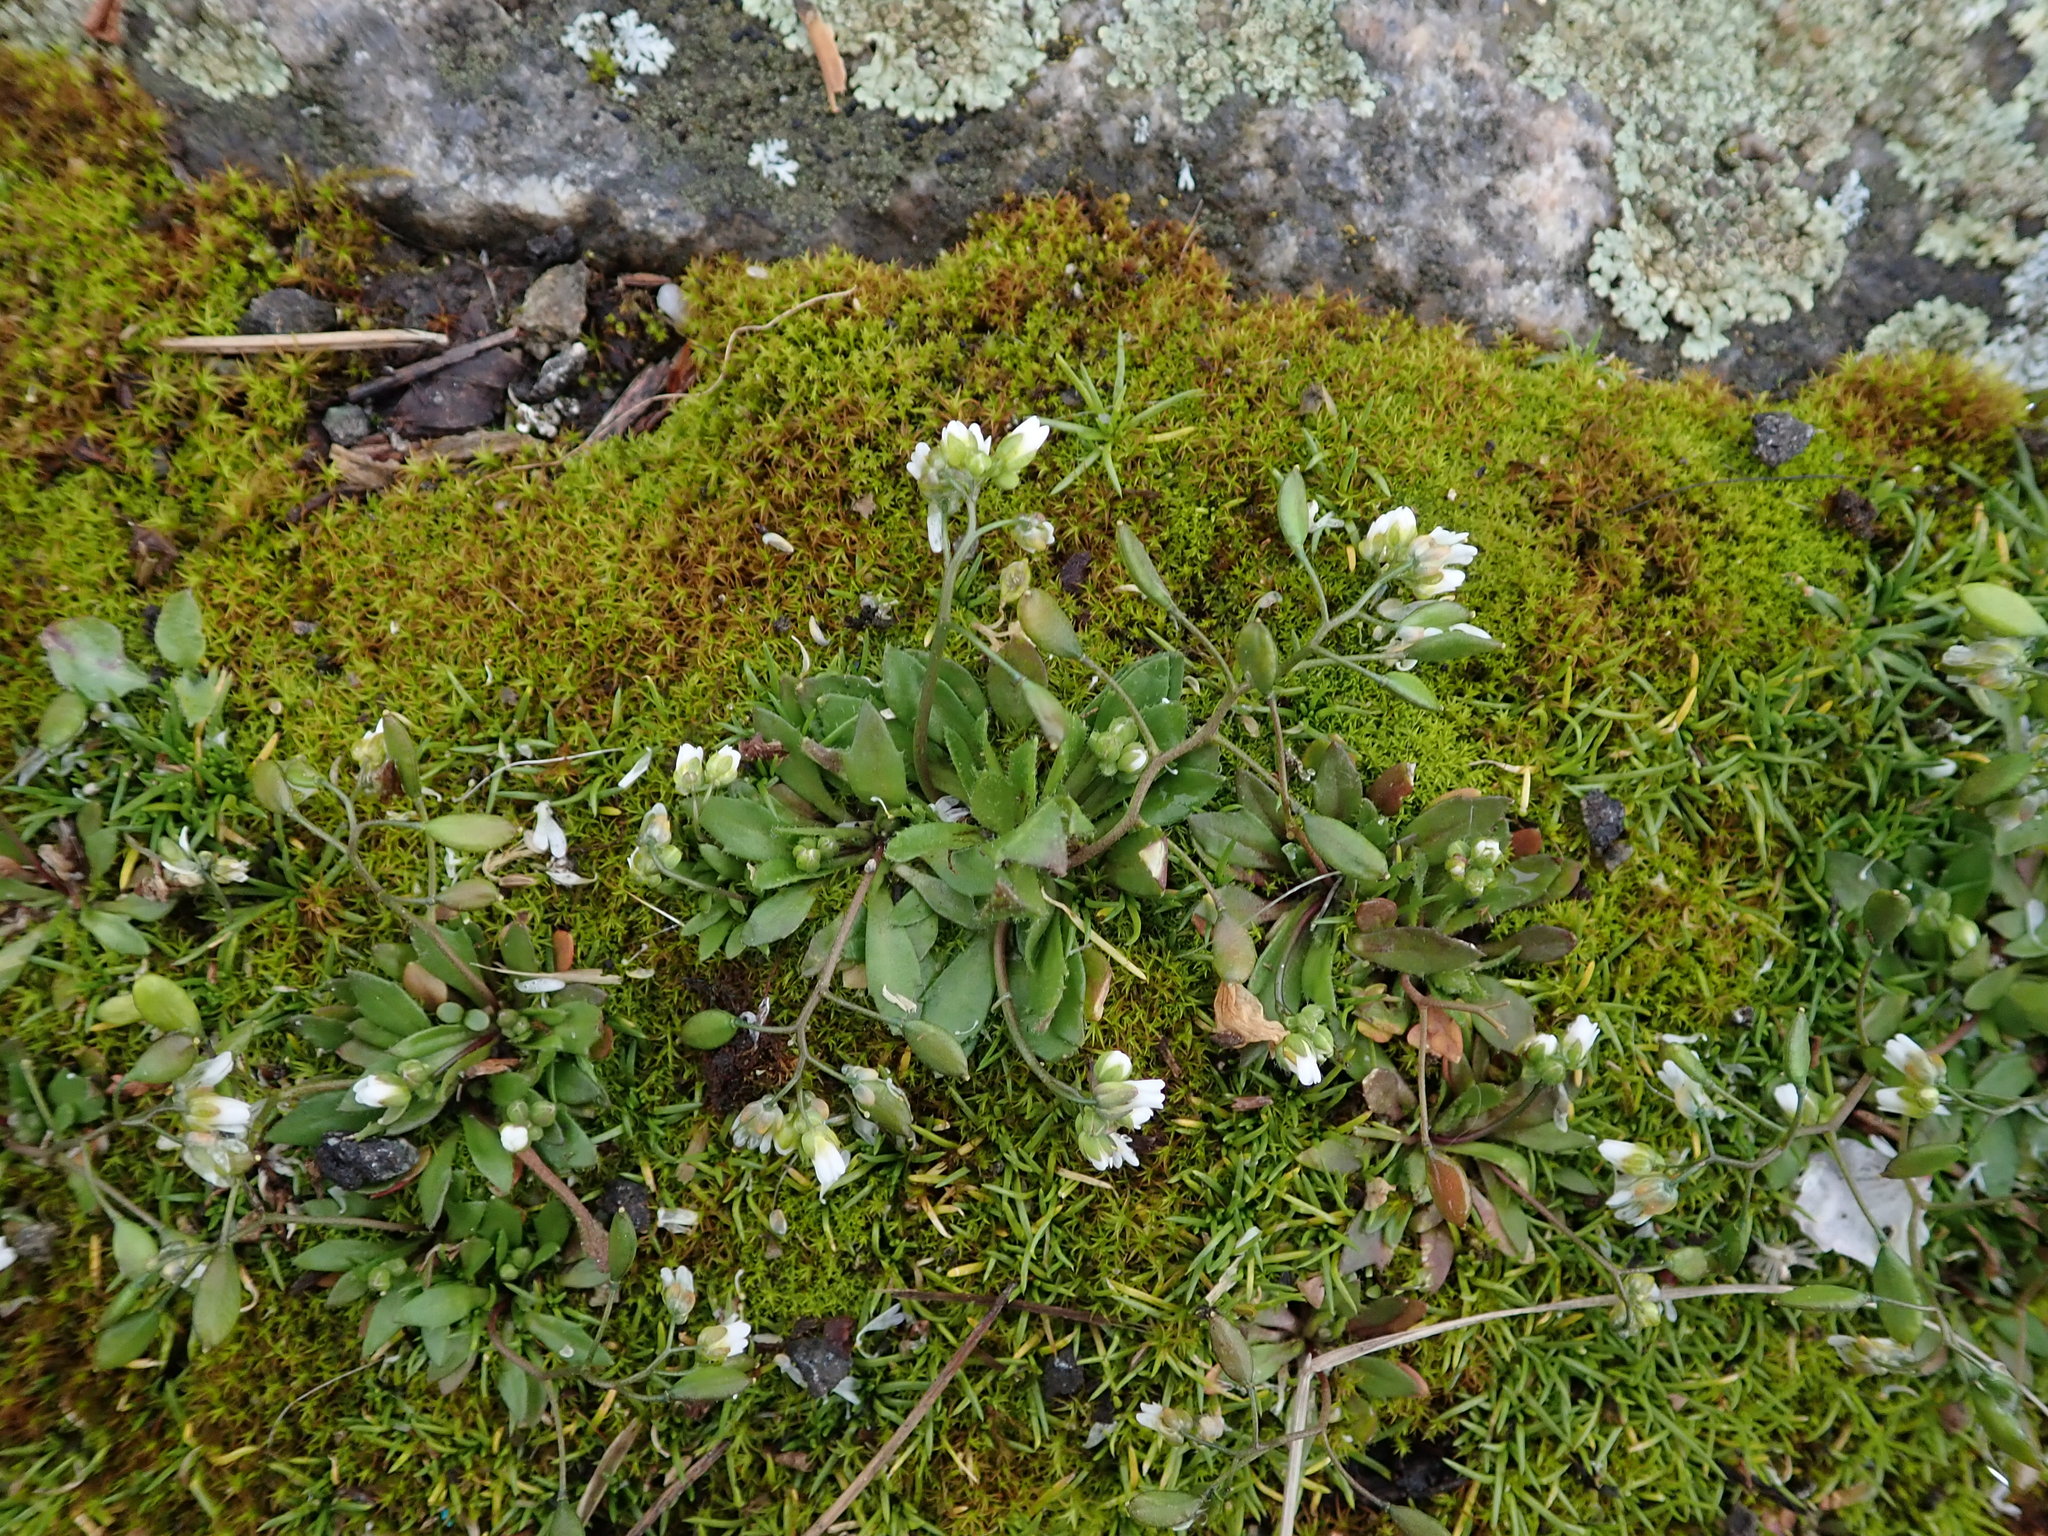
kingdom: Plantae
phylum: Tracheophyta
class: Magnoliopsida
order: Brassicales
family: Brassicaceae
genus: Draba
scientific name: Draba verna
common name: Spring draba
